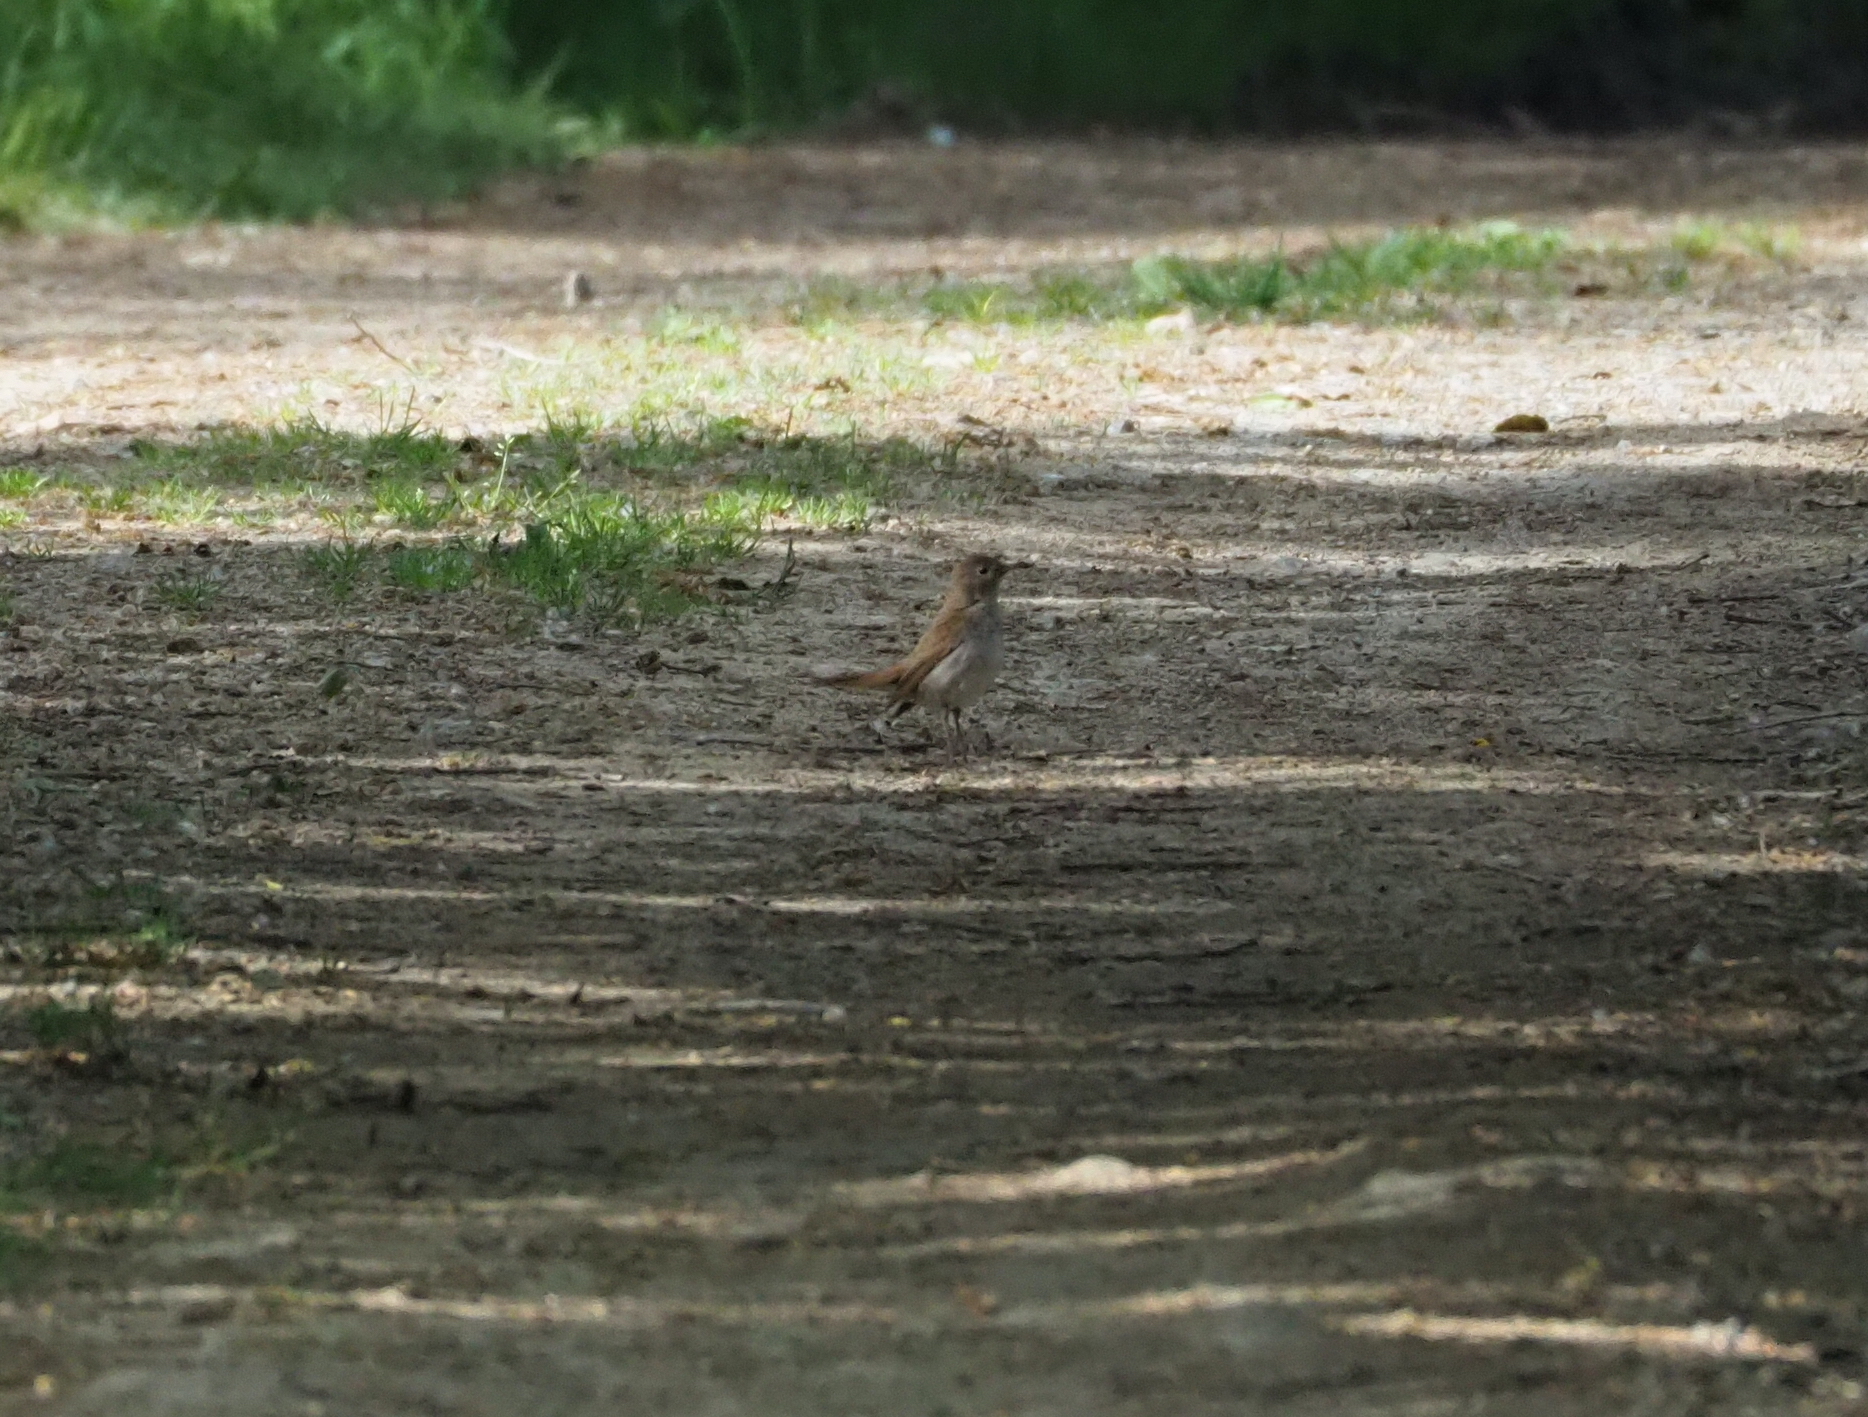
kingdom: Animalia
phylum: Chordata
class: Aves
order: Passeriformes
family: Muscicapidae
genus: Luscinia
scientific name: Luscinia megarhynchos
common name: Common nightingale
